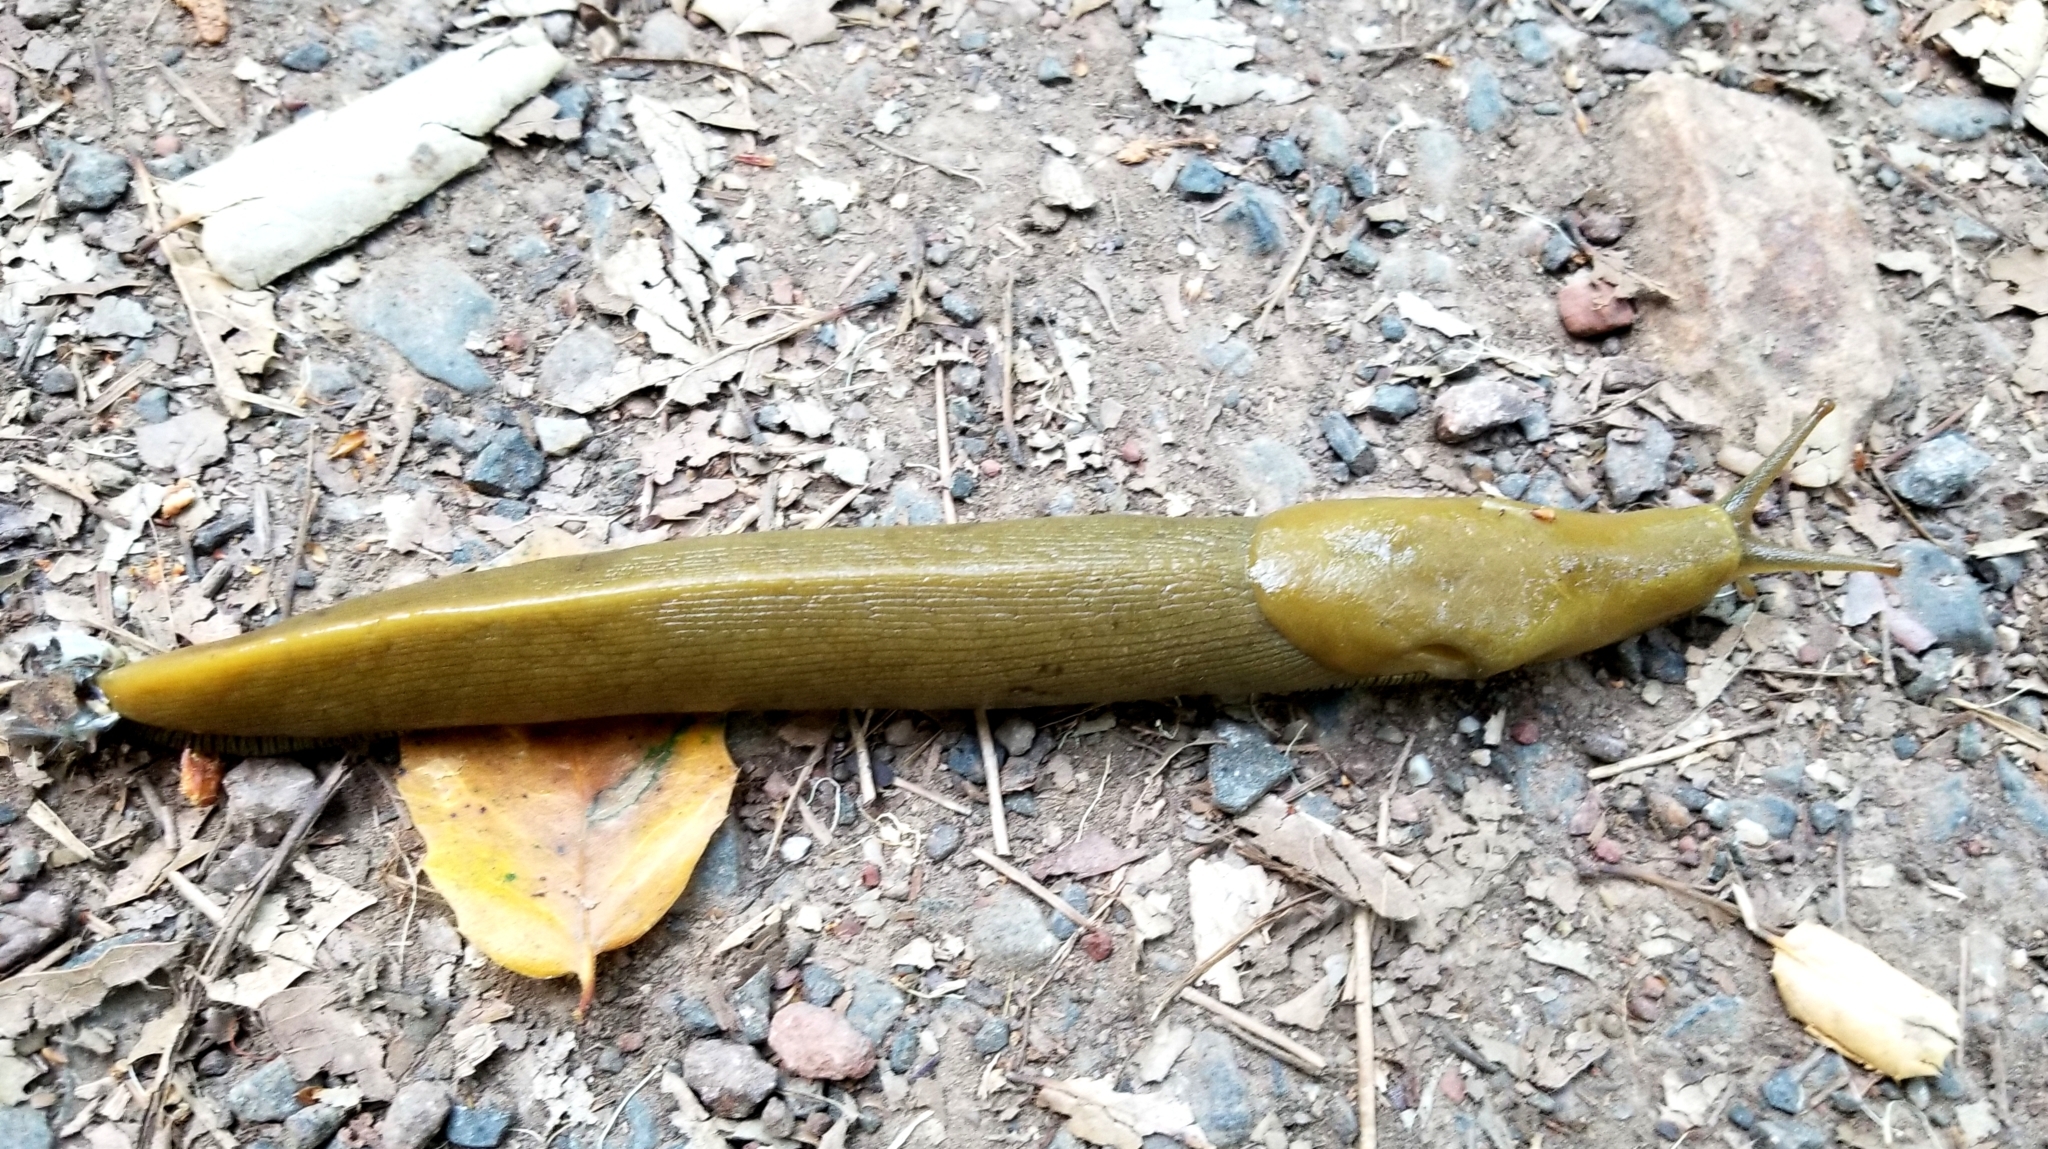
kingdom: Animalia
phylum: Mollusca
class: Gastropoda
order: Stylommatophora
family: Ariolimacidae
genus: Ariolimax
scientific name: Ariolimax buttoni
